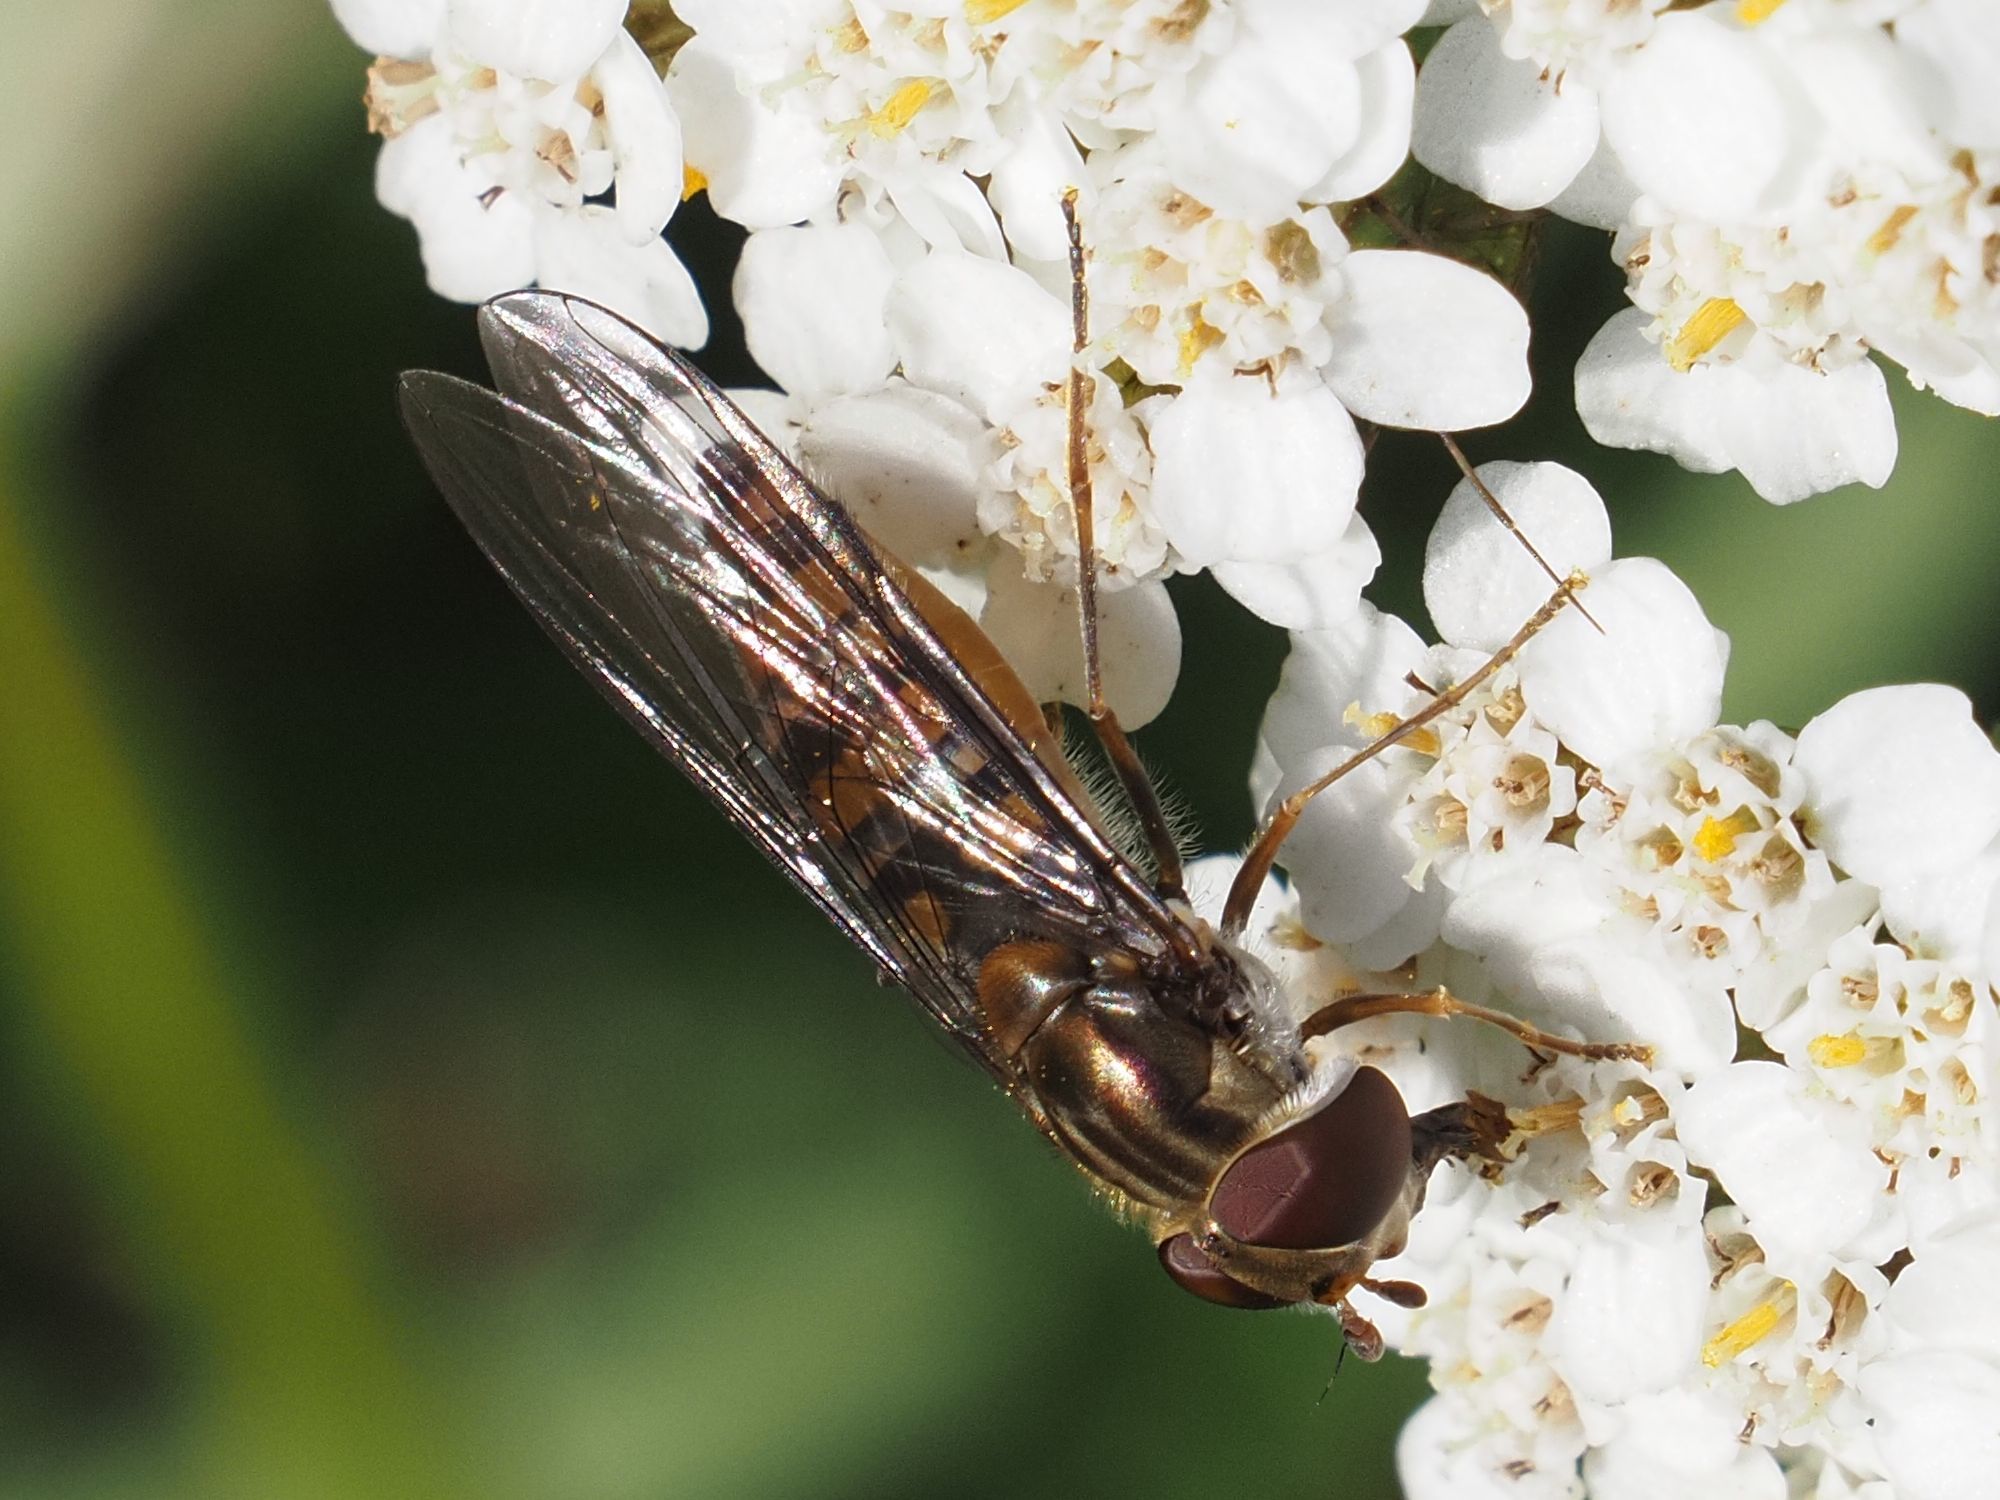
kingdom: Animalia
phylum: Arthropoda
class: Insecta
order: Diptera
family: Syrphidae
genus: Episyrphus
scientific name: Episyrphus balteatus
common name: Marmalade hoverfly
